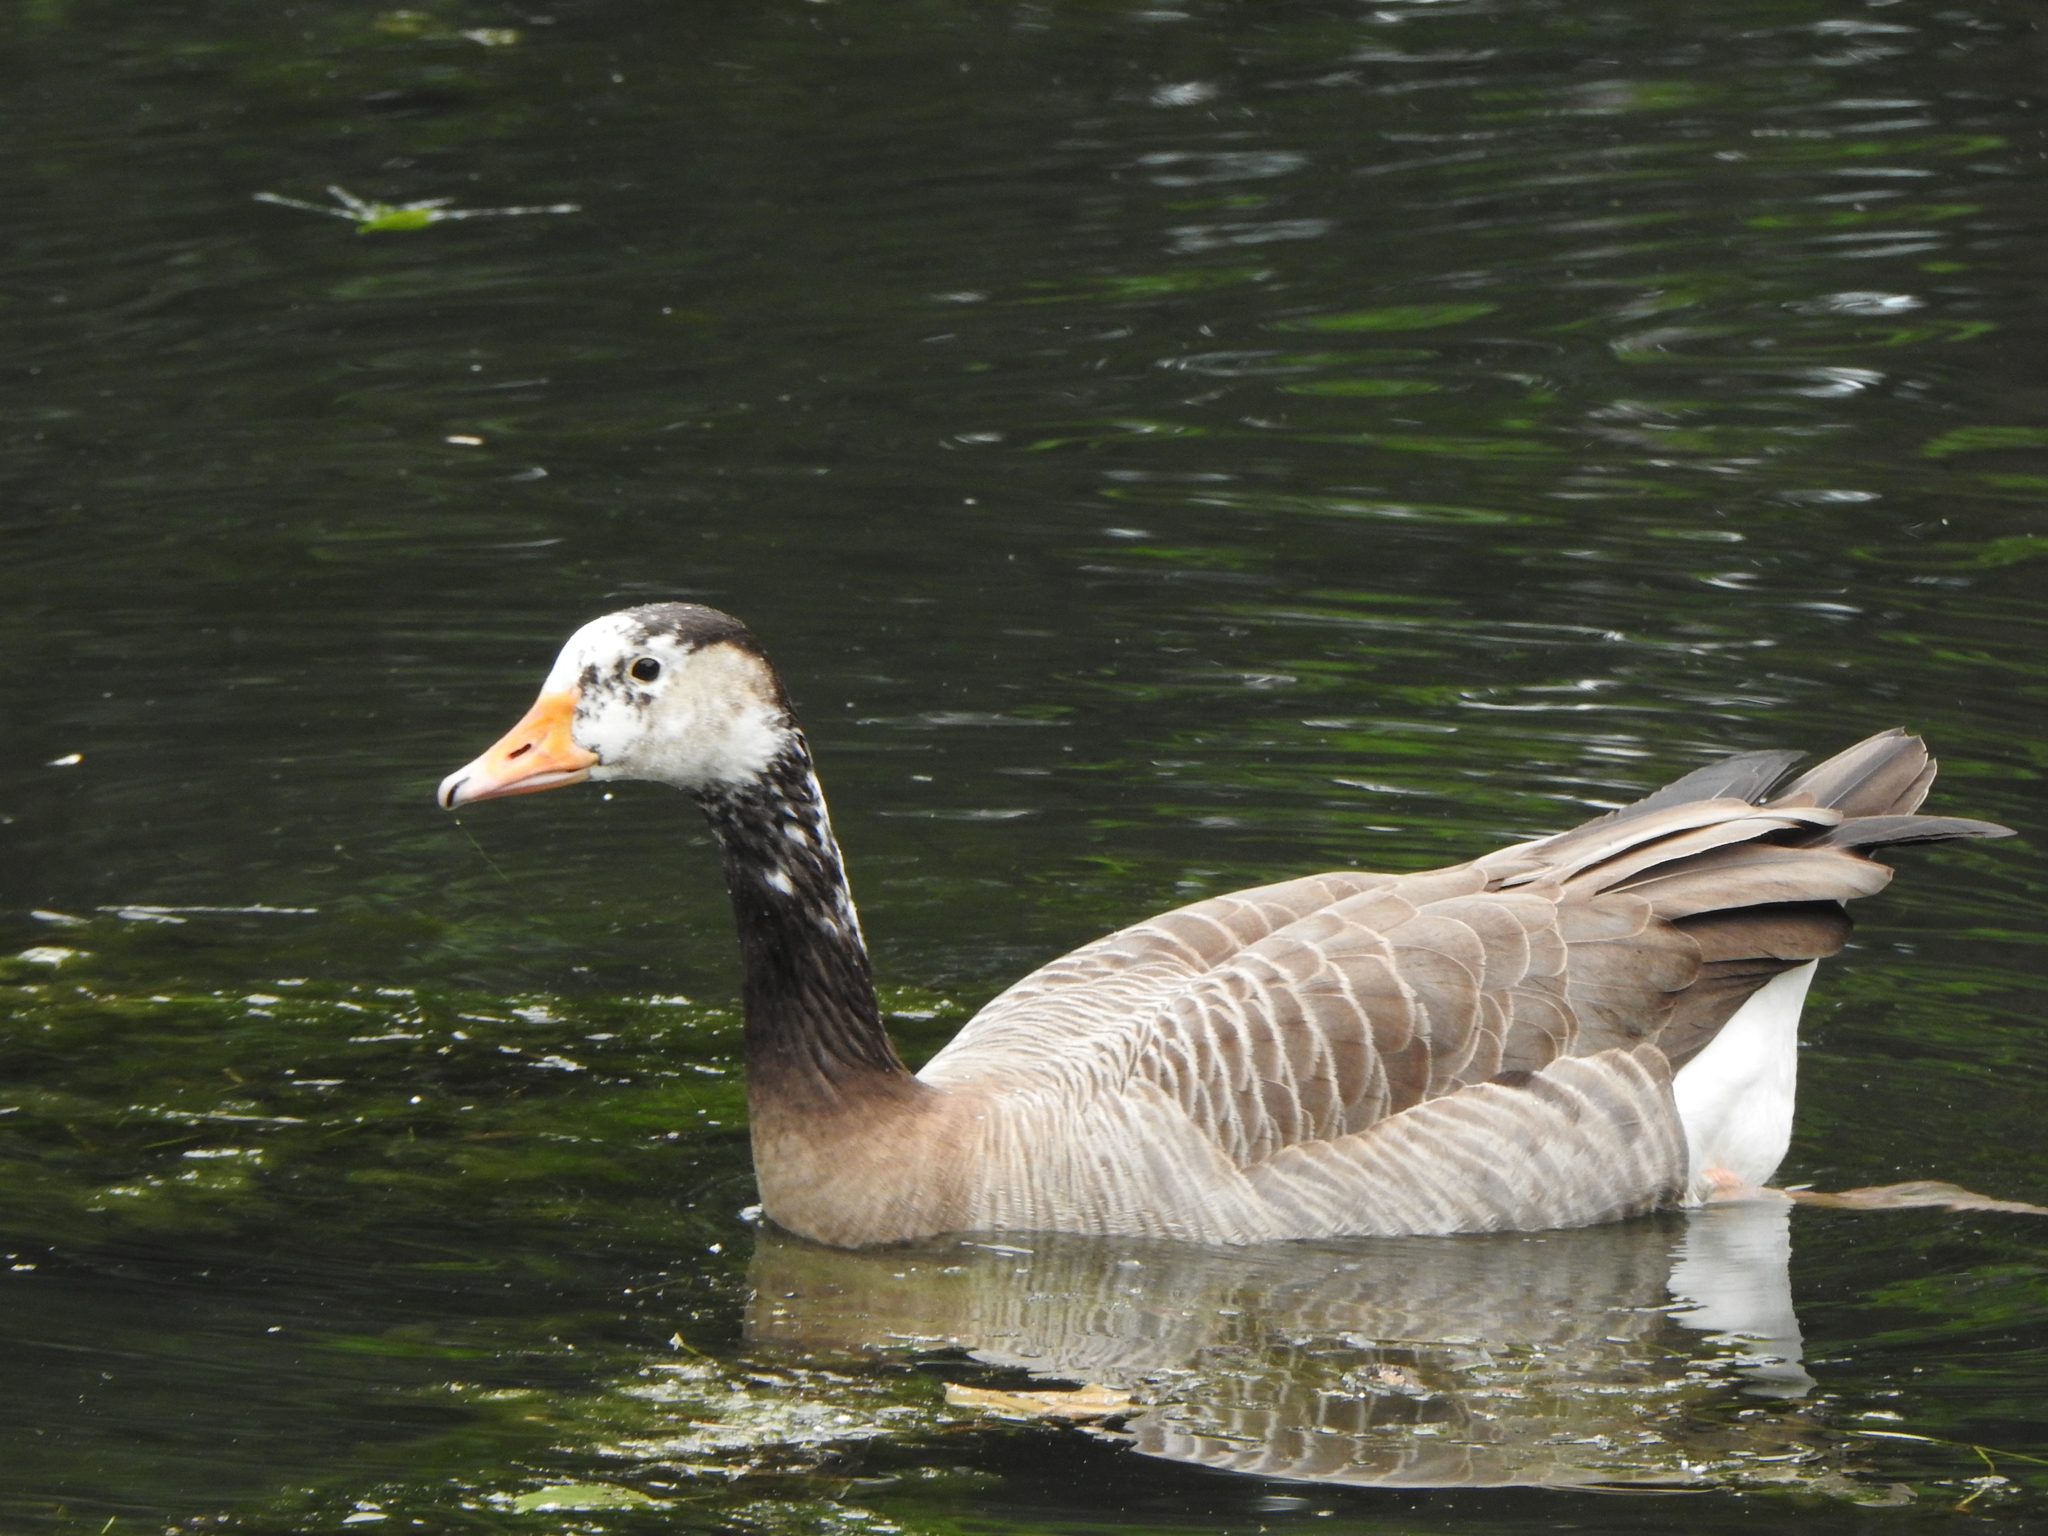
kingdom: Animalia
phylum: Chordata
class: Aves
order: Anseriformes
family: Anatidae
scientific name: Anatidae
